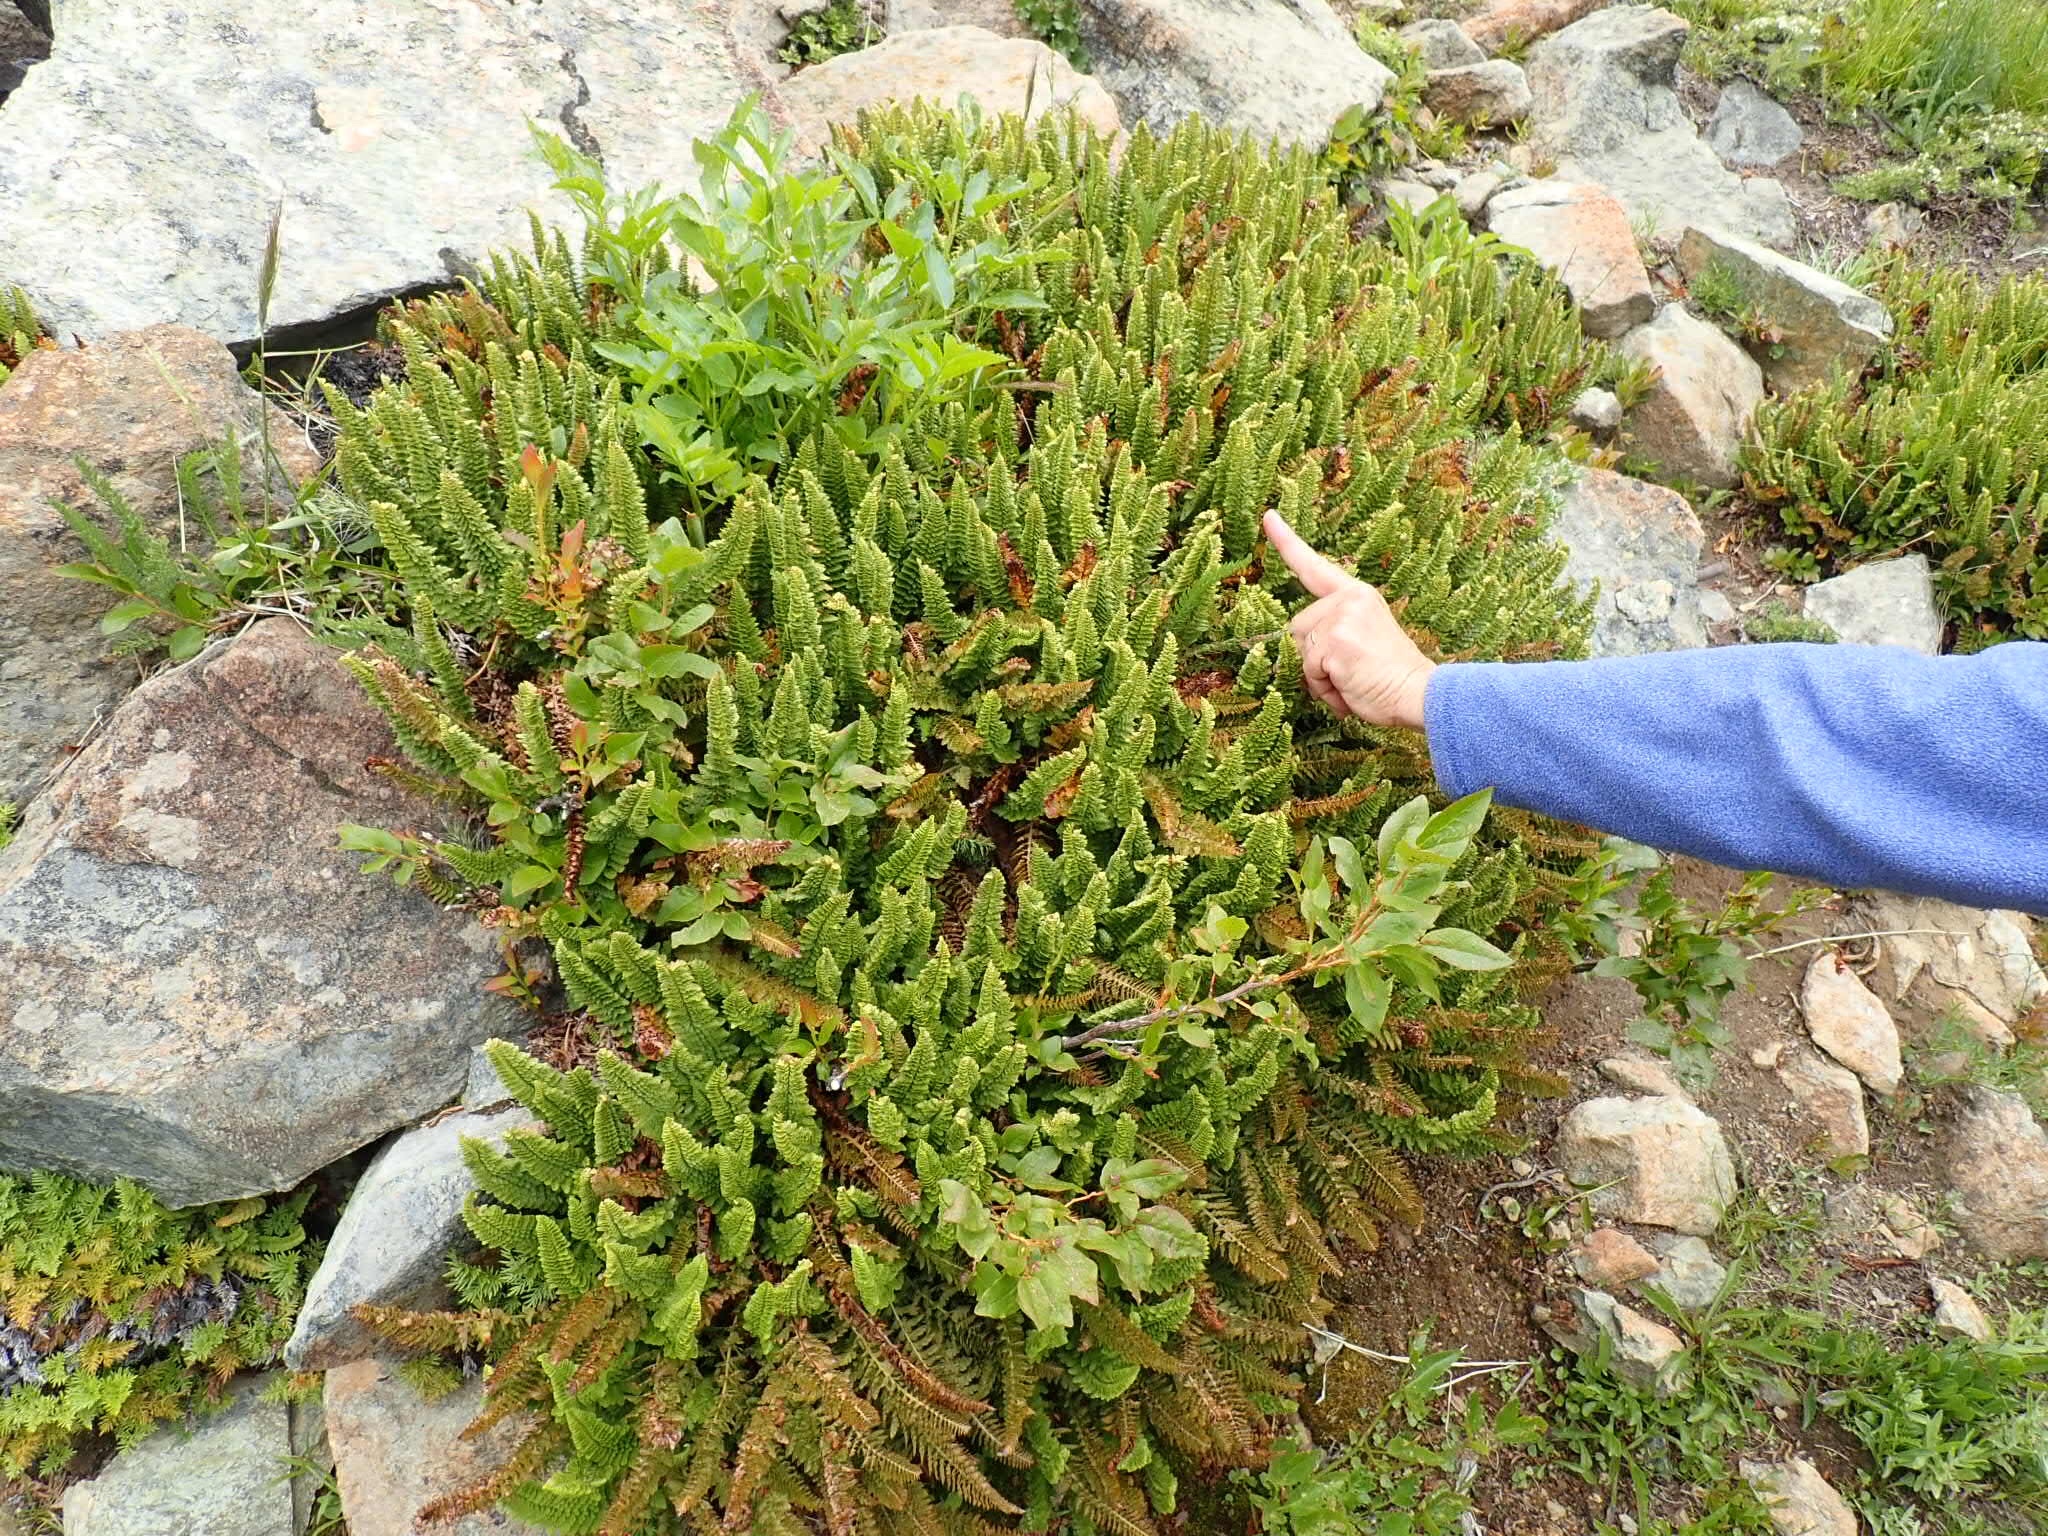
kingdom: Plantae
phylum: Tracheophyta
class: Polypodiopsida
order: Polypodiales
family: Dryopteridaceae
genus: Polystichum
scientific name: Polystichum lemmonii
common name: Lemmon's holly fern
